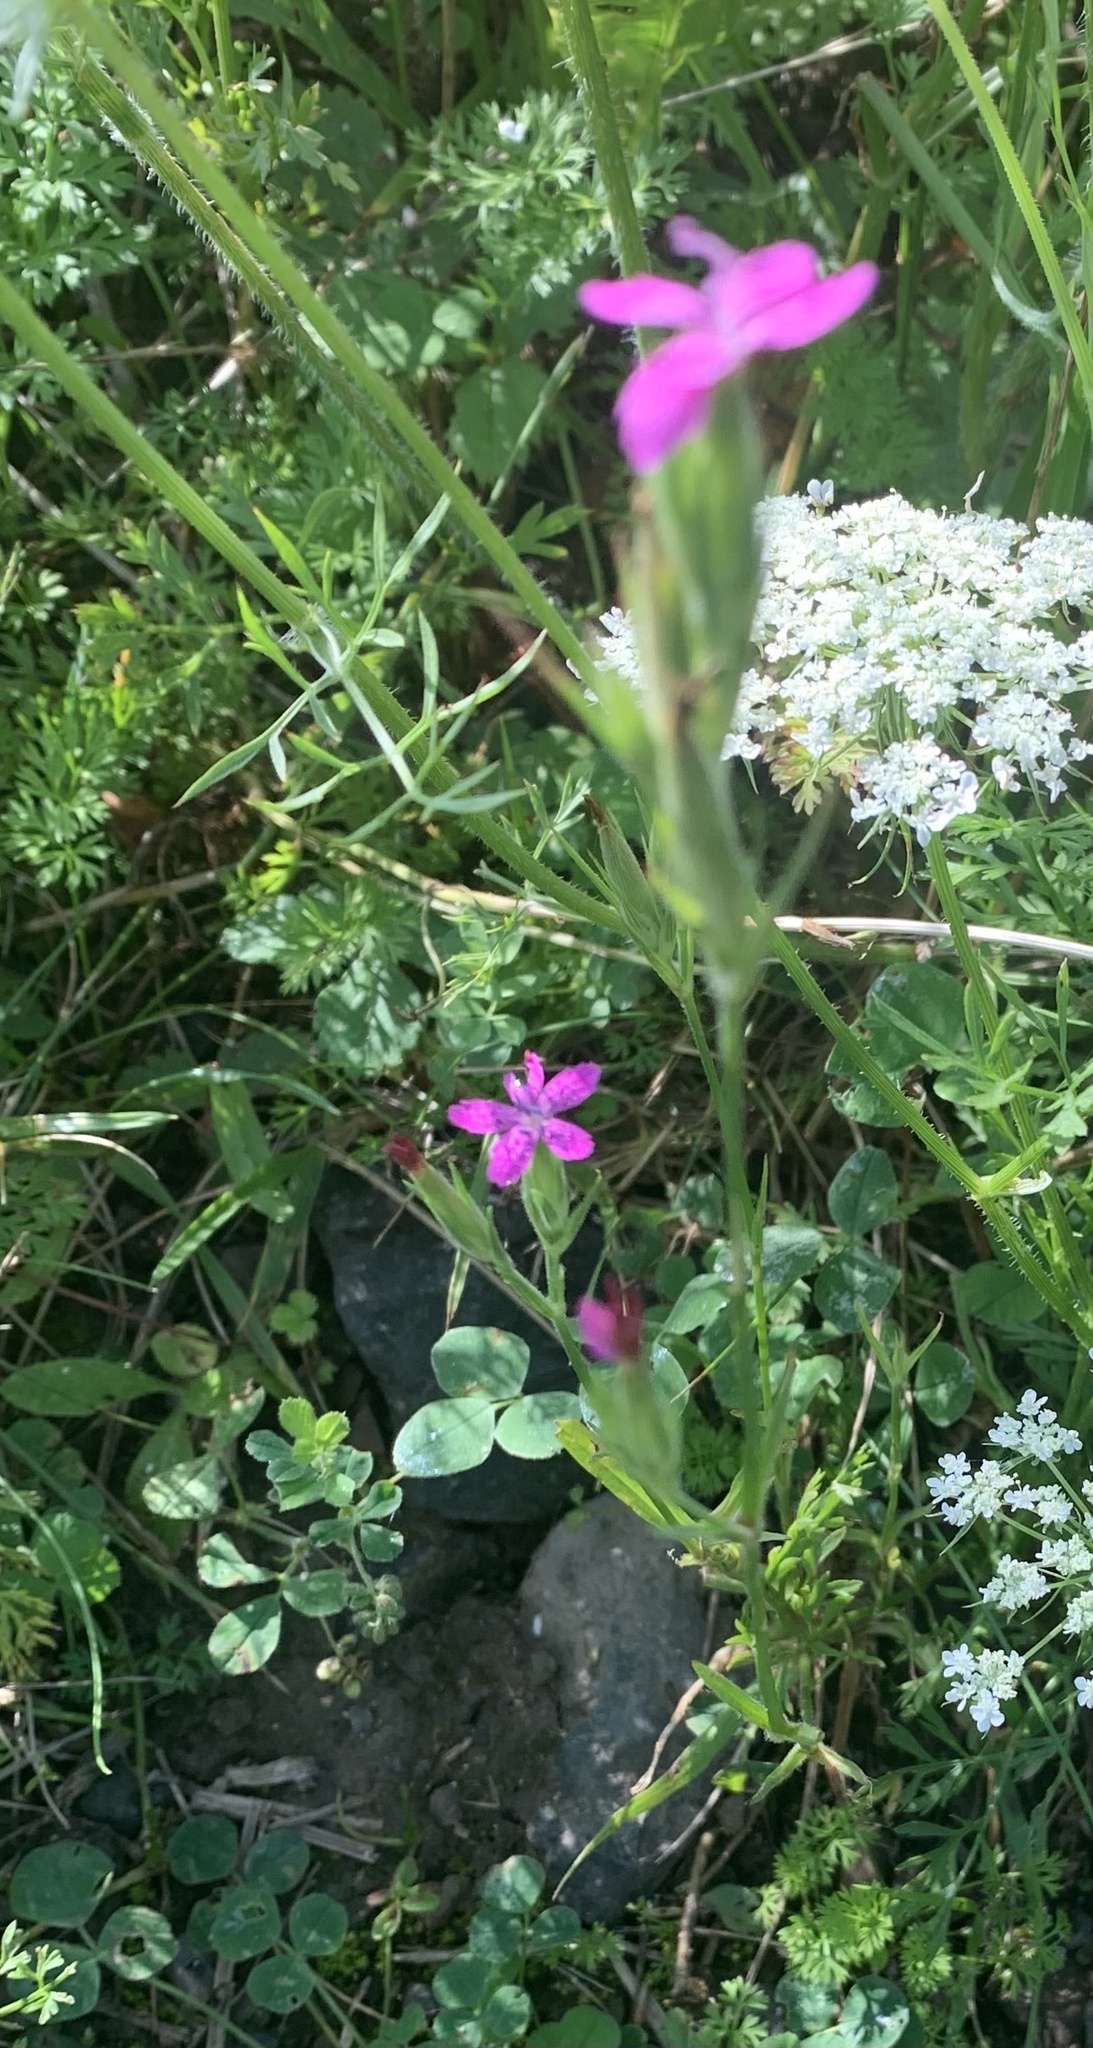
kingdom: Plantae
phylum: Tracheophyta
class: Magnoliopsida
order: Caryophyllales
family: Caryophyllaceae
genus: Dianthus
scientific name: Dianthus armeria
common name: Deptford pink
